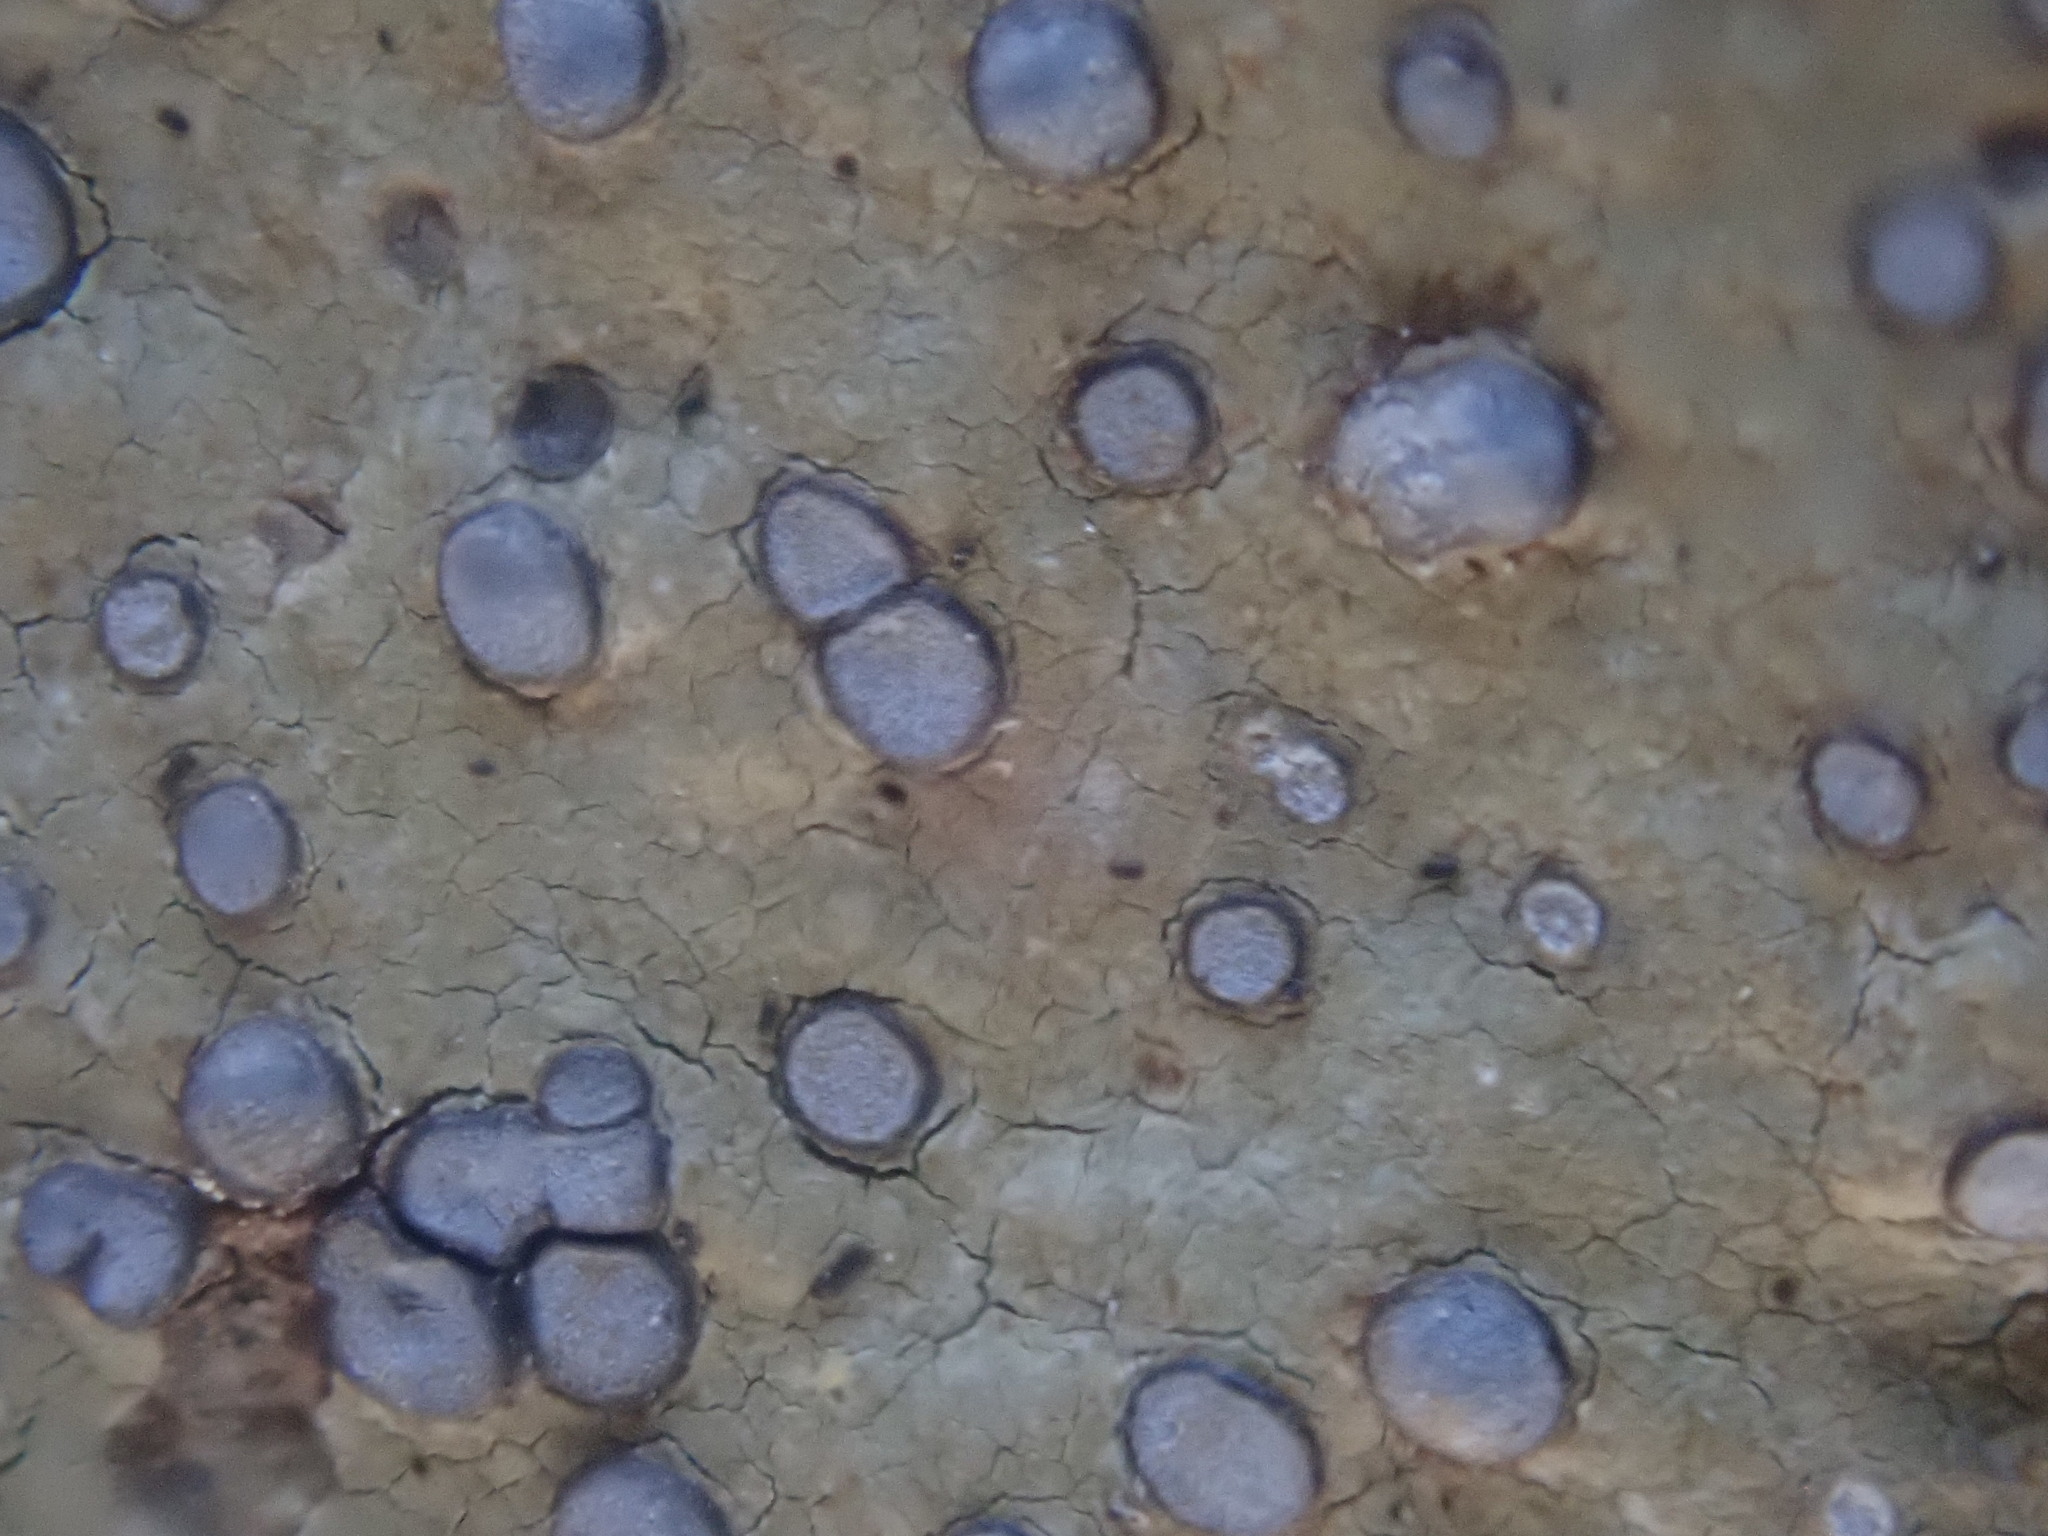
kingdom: Fungi
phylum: Ascomycota
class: Lecanoromycetes
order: Lecideales
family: Lecideaceae
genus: Porpidia
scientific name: Porpidia albocaerulescens
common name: Smokey-eyed boulder lichen
